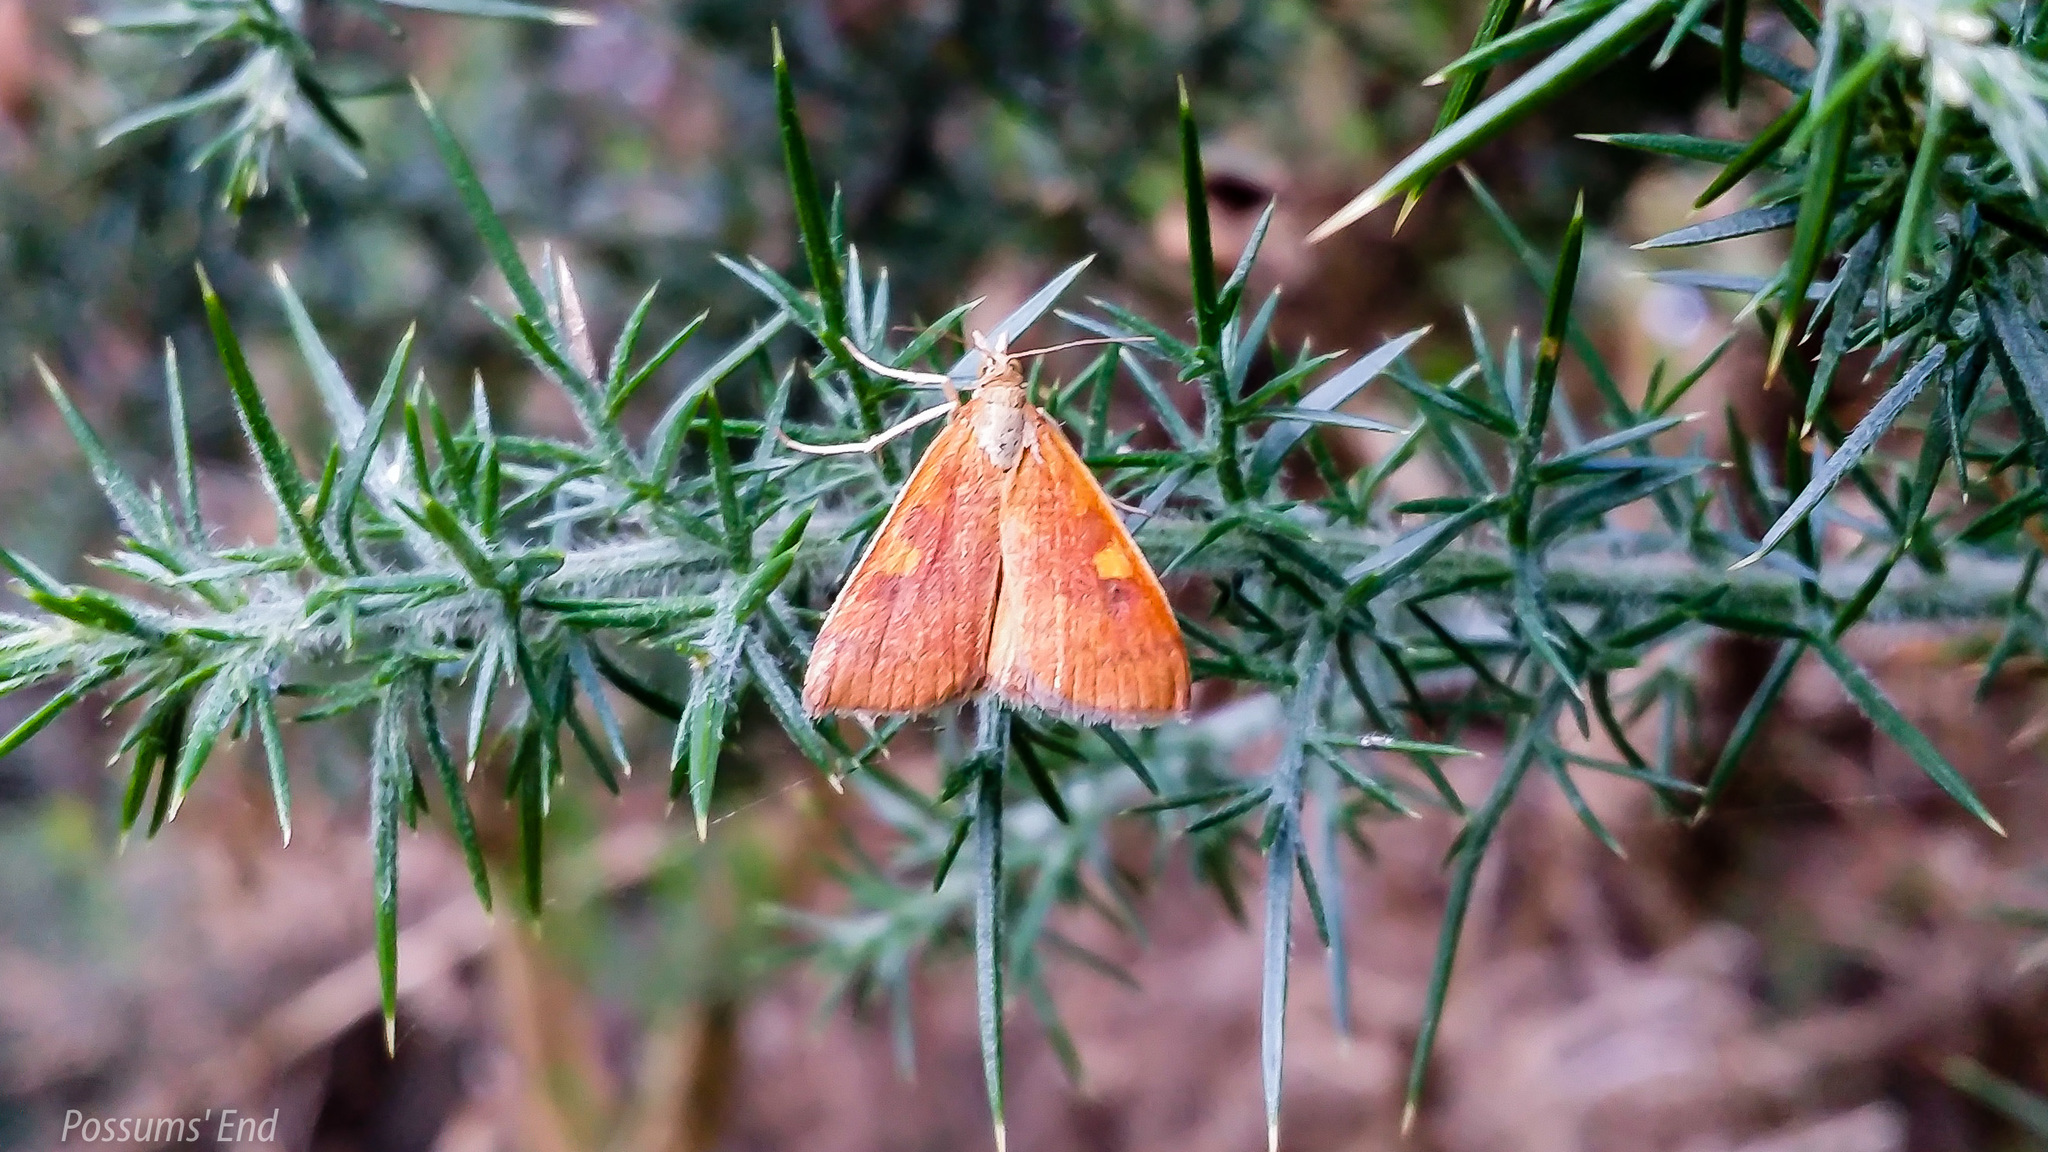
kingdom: Animalia
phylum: Arthropoda
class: Insecta
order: Lepidoptera
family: Crambidae
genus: Udea
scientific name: Udea Mnesictena flavidalis
